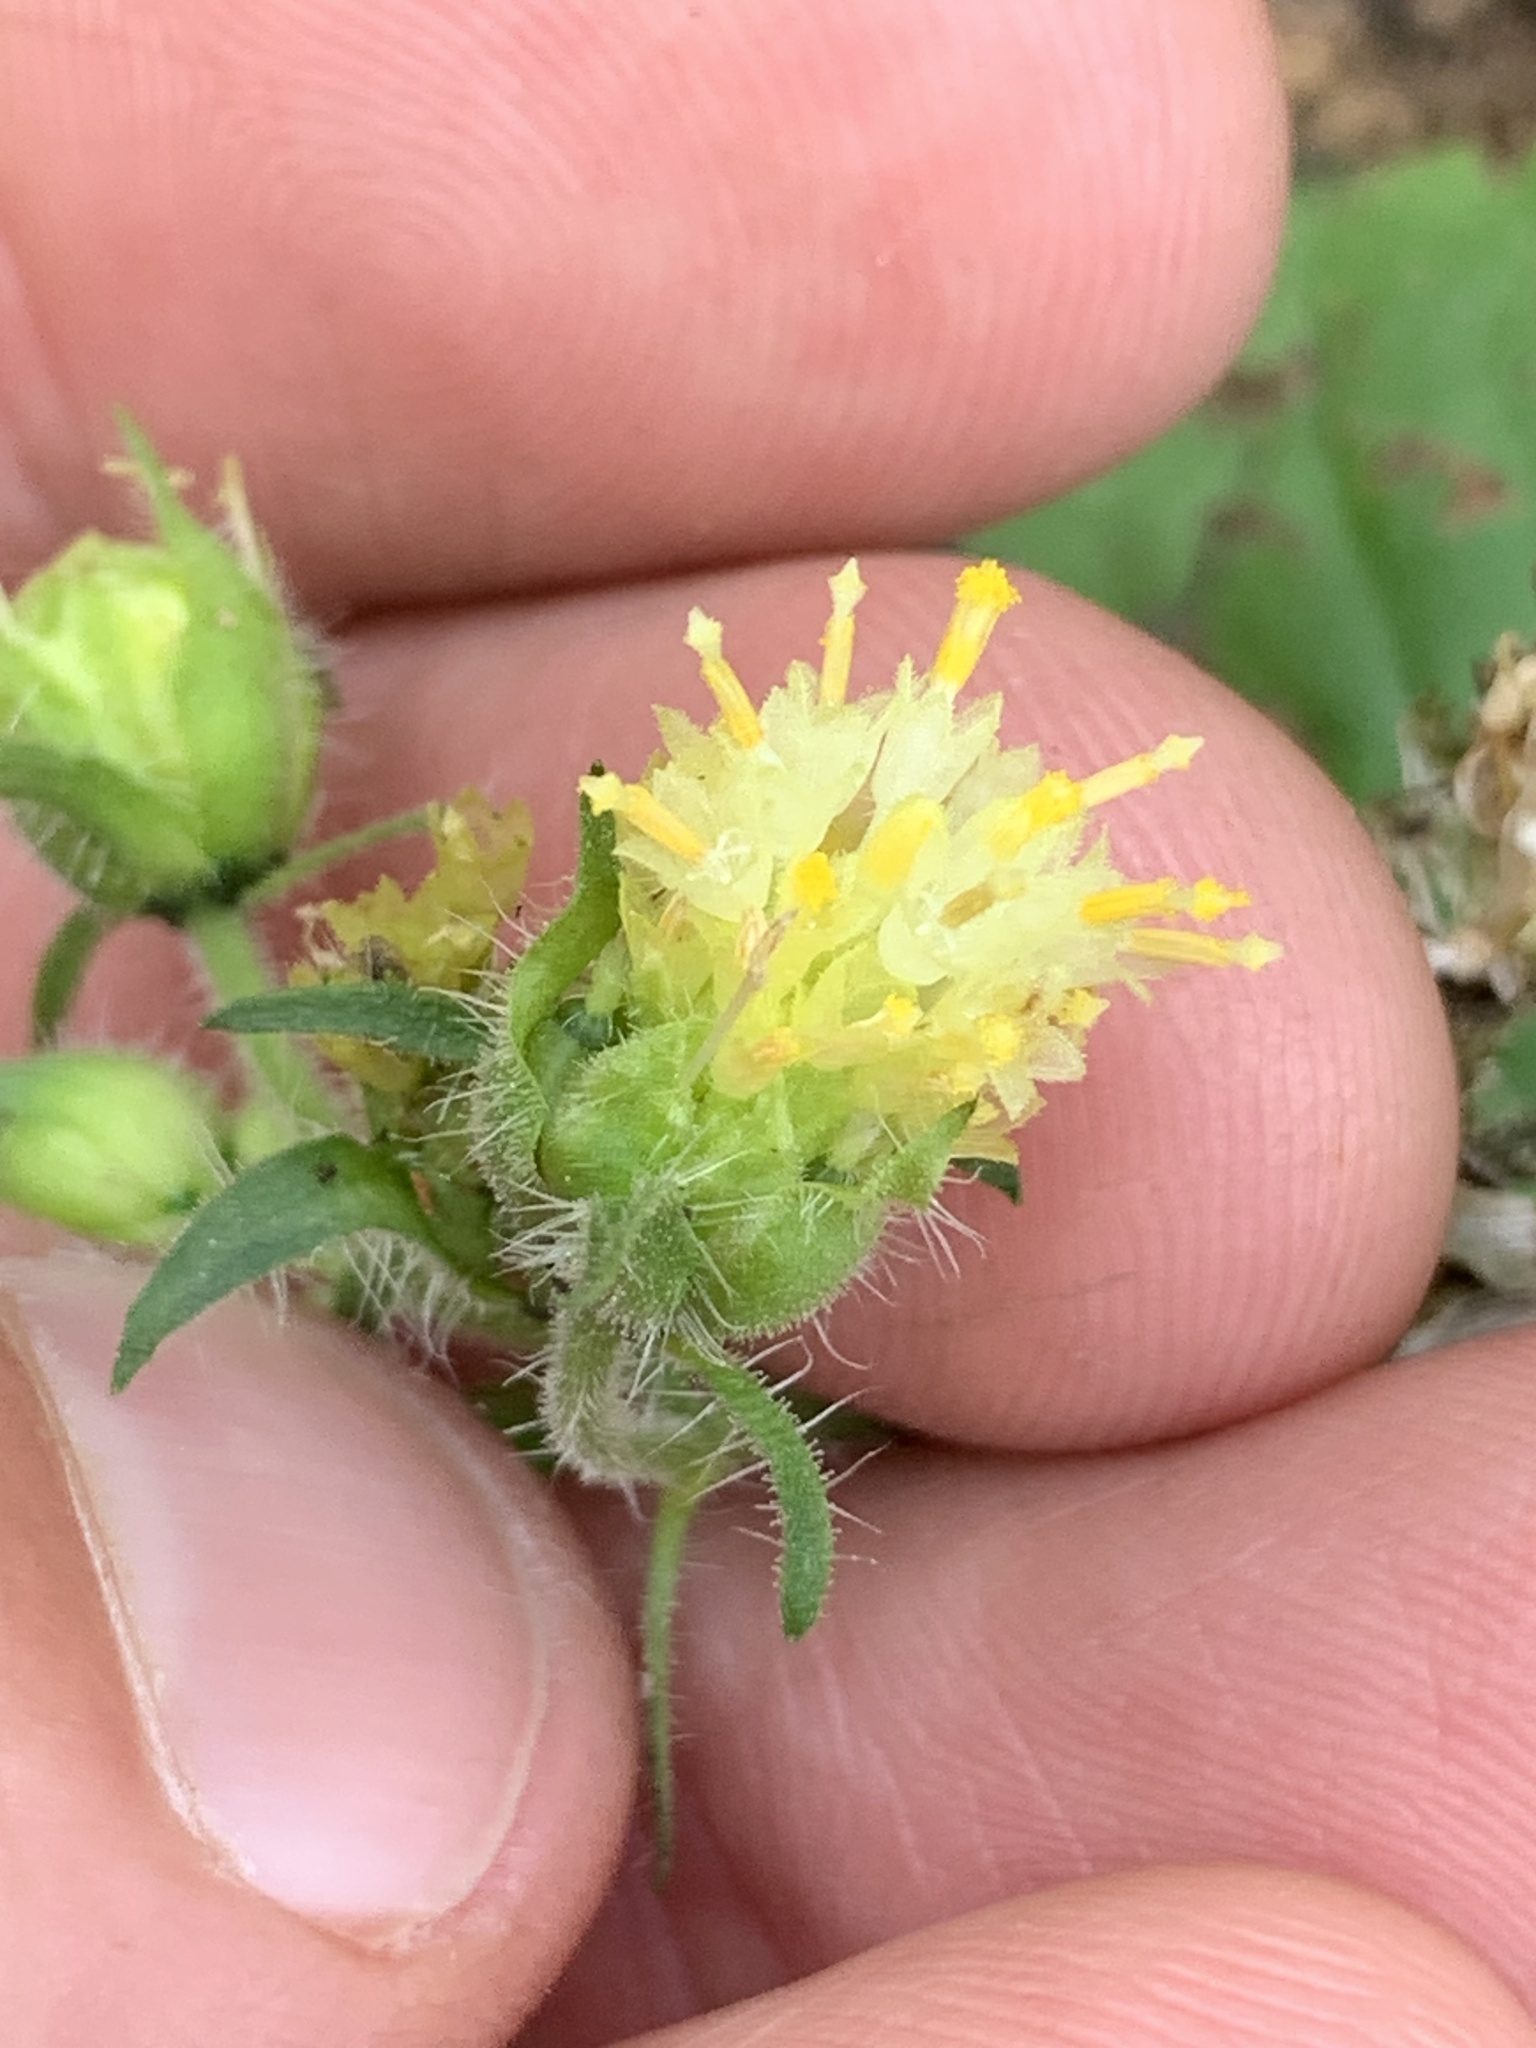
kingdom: Plantae
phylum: Tracheophyta
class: Magnoliopsida
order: Asterales
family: Asteraceae
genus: Polymnia
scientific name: Polymnia canadensis
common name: Pale-flowered leafcup
